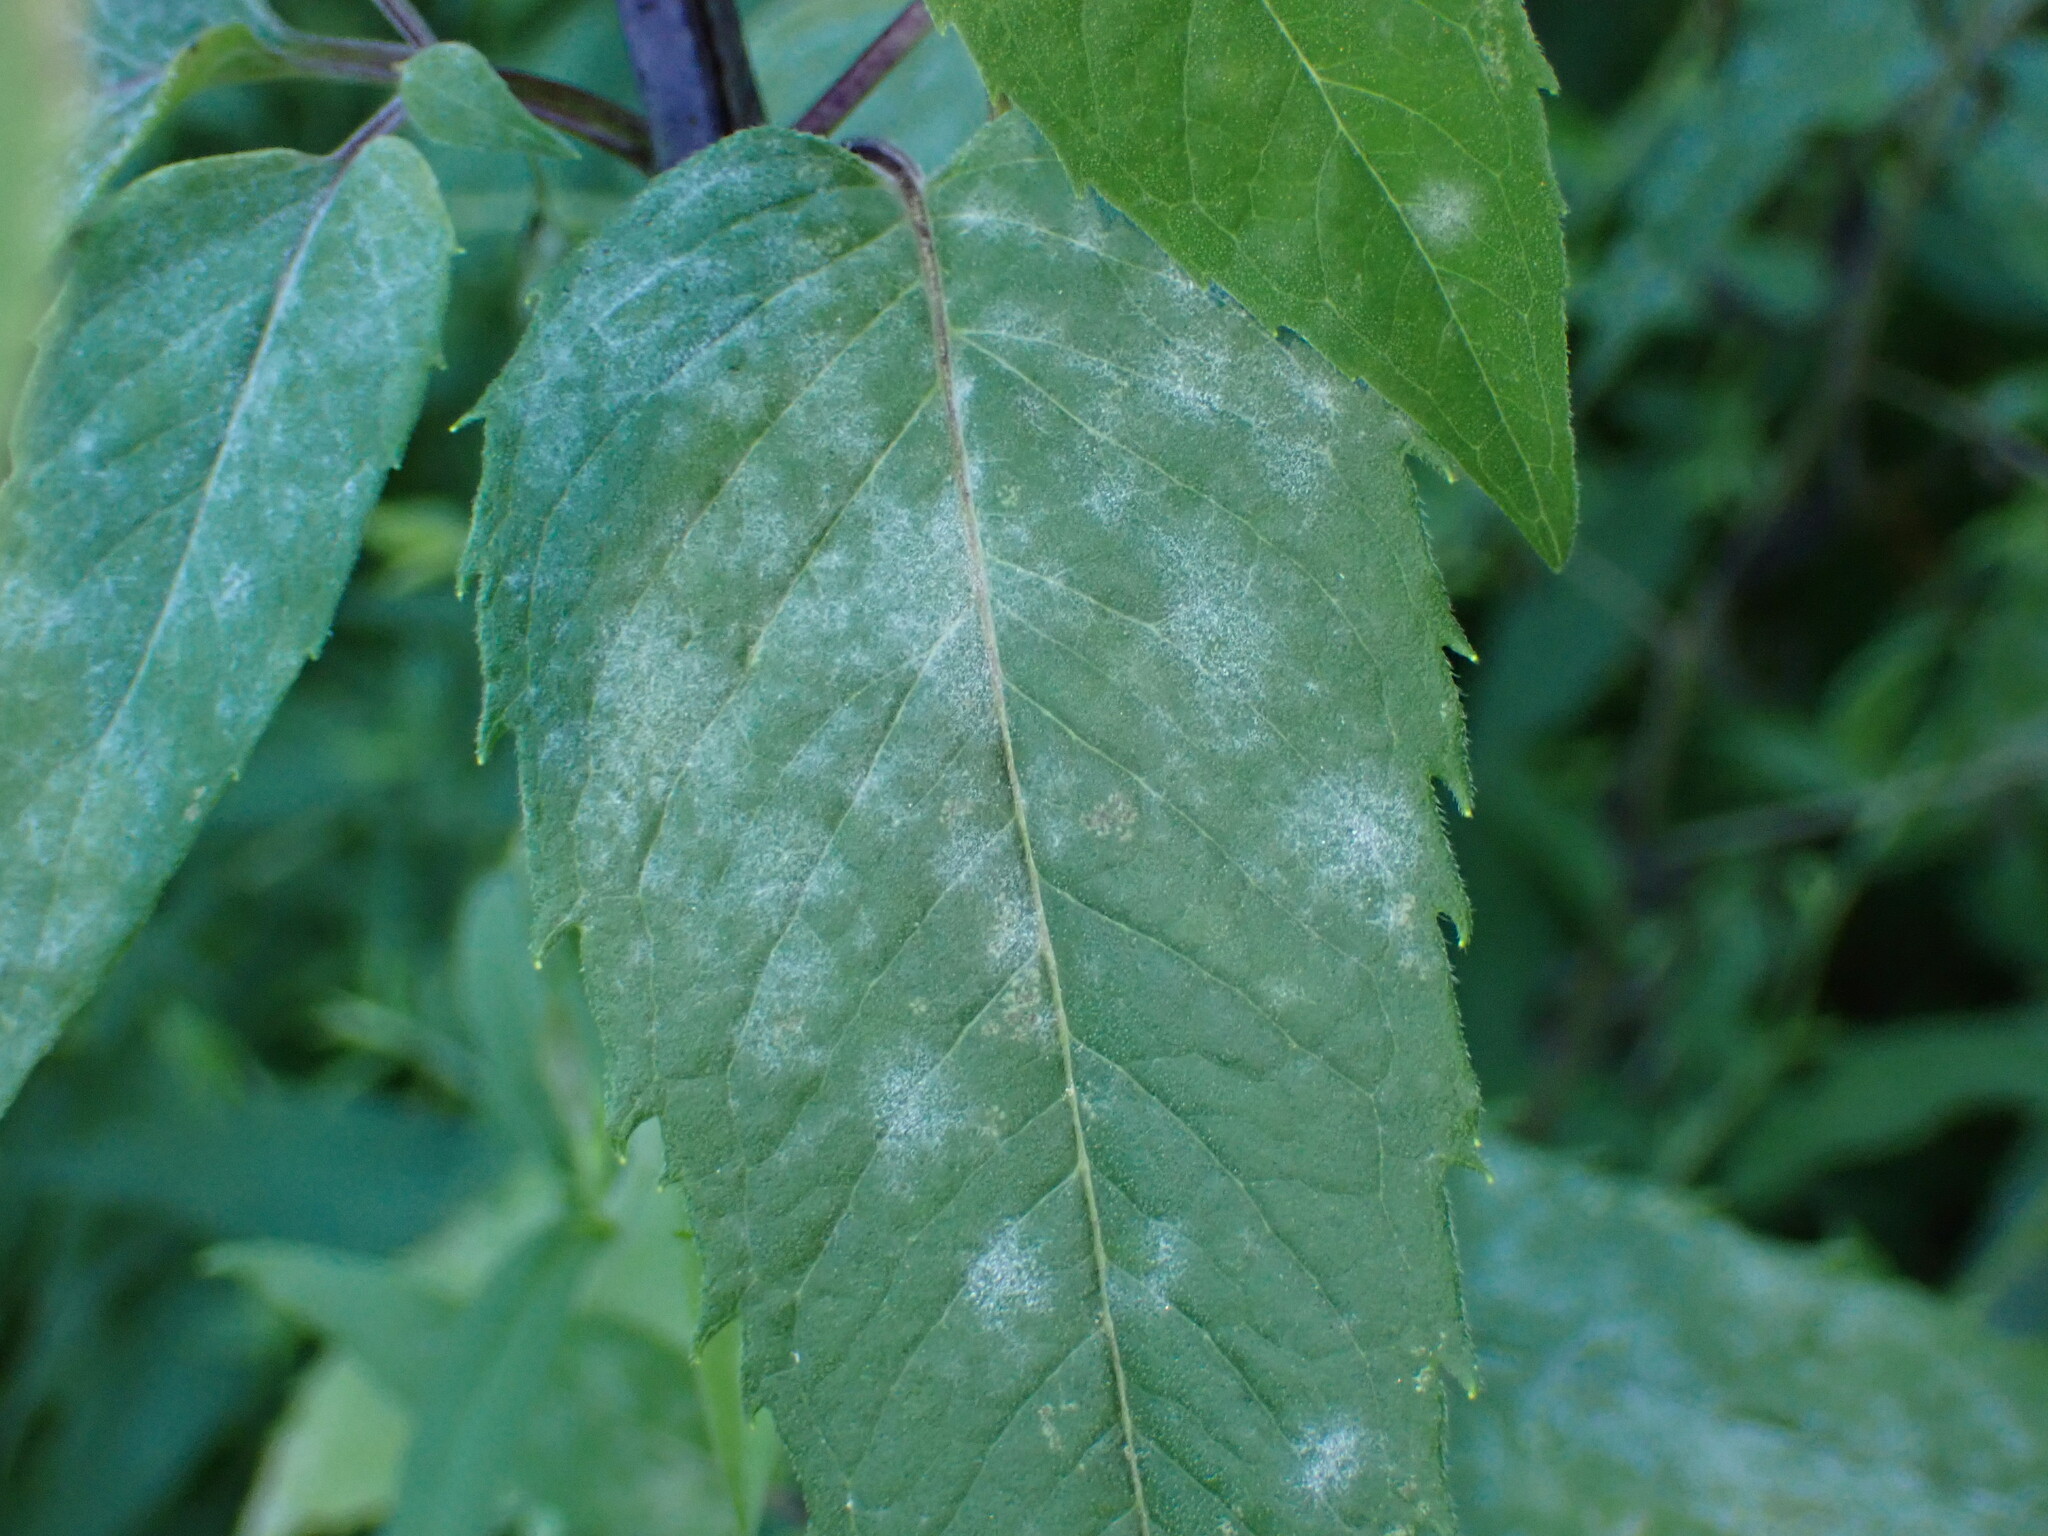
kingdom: Fungi
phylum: Ascomycota
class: Leotiomycetes
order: Helotiales
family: Erysiphaceae
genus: Golovinomyces
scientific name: Golovinomyces monardae
